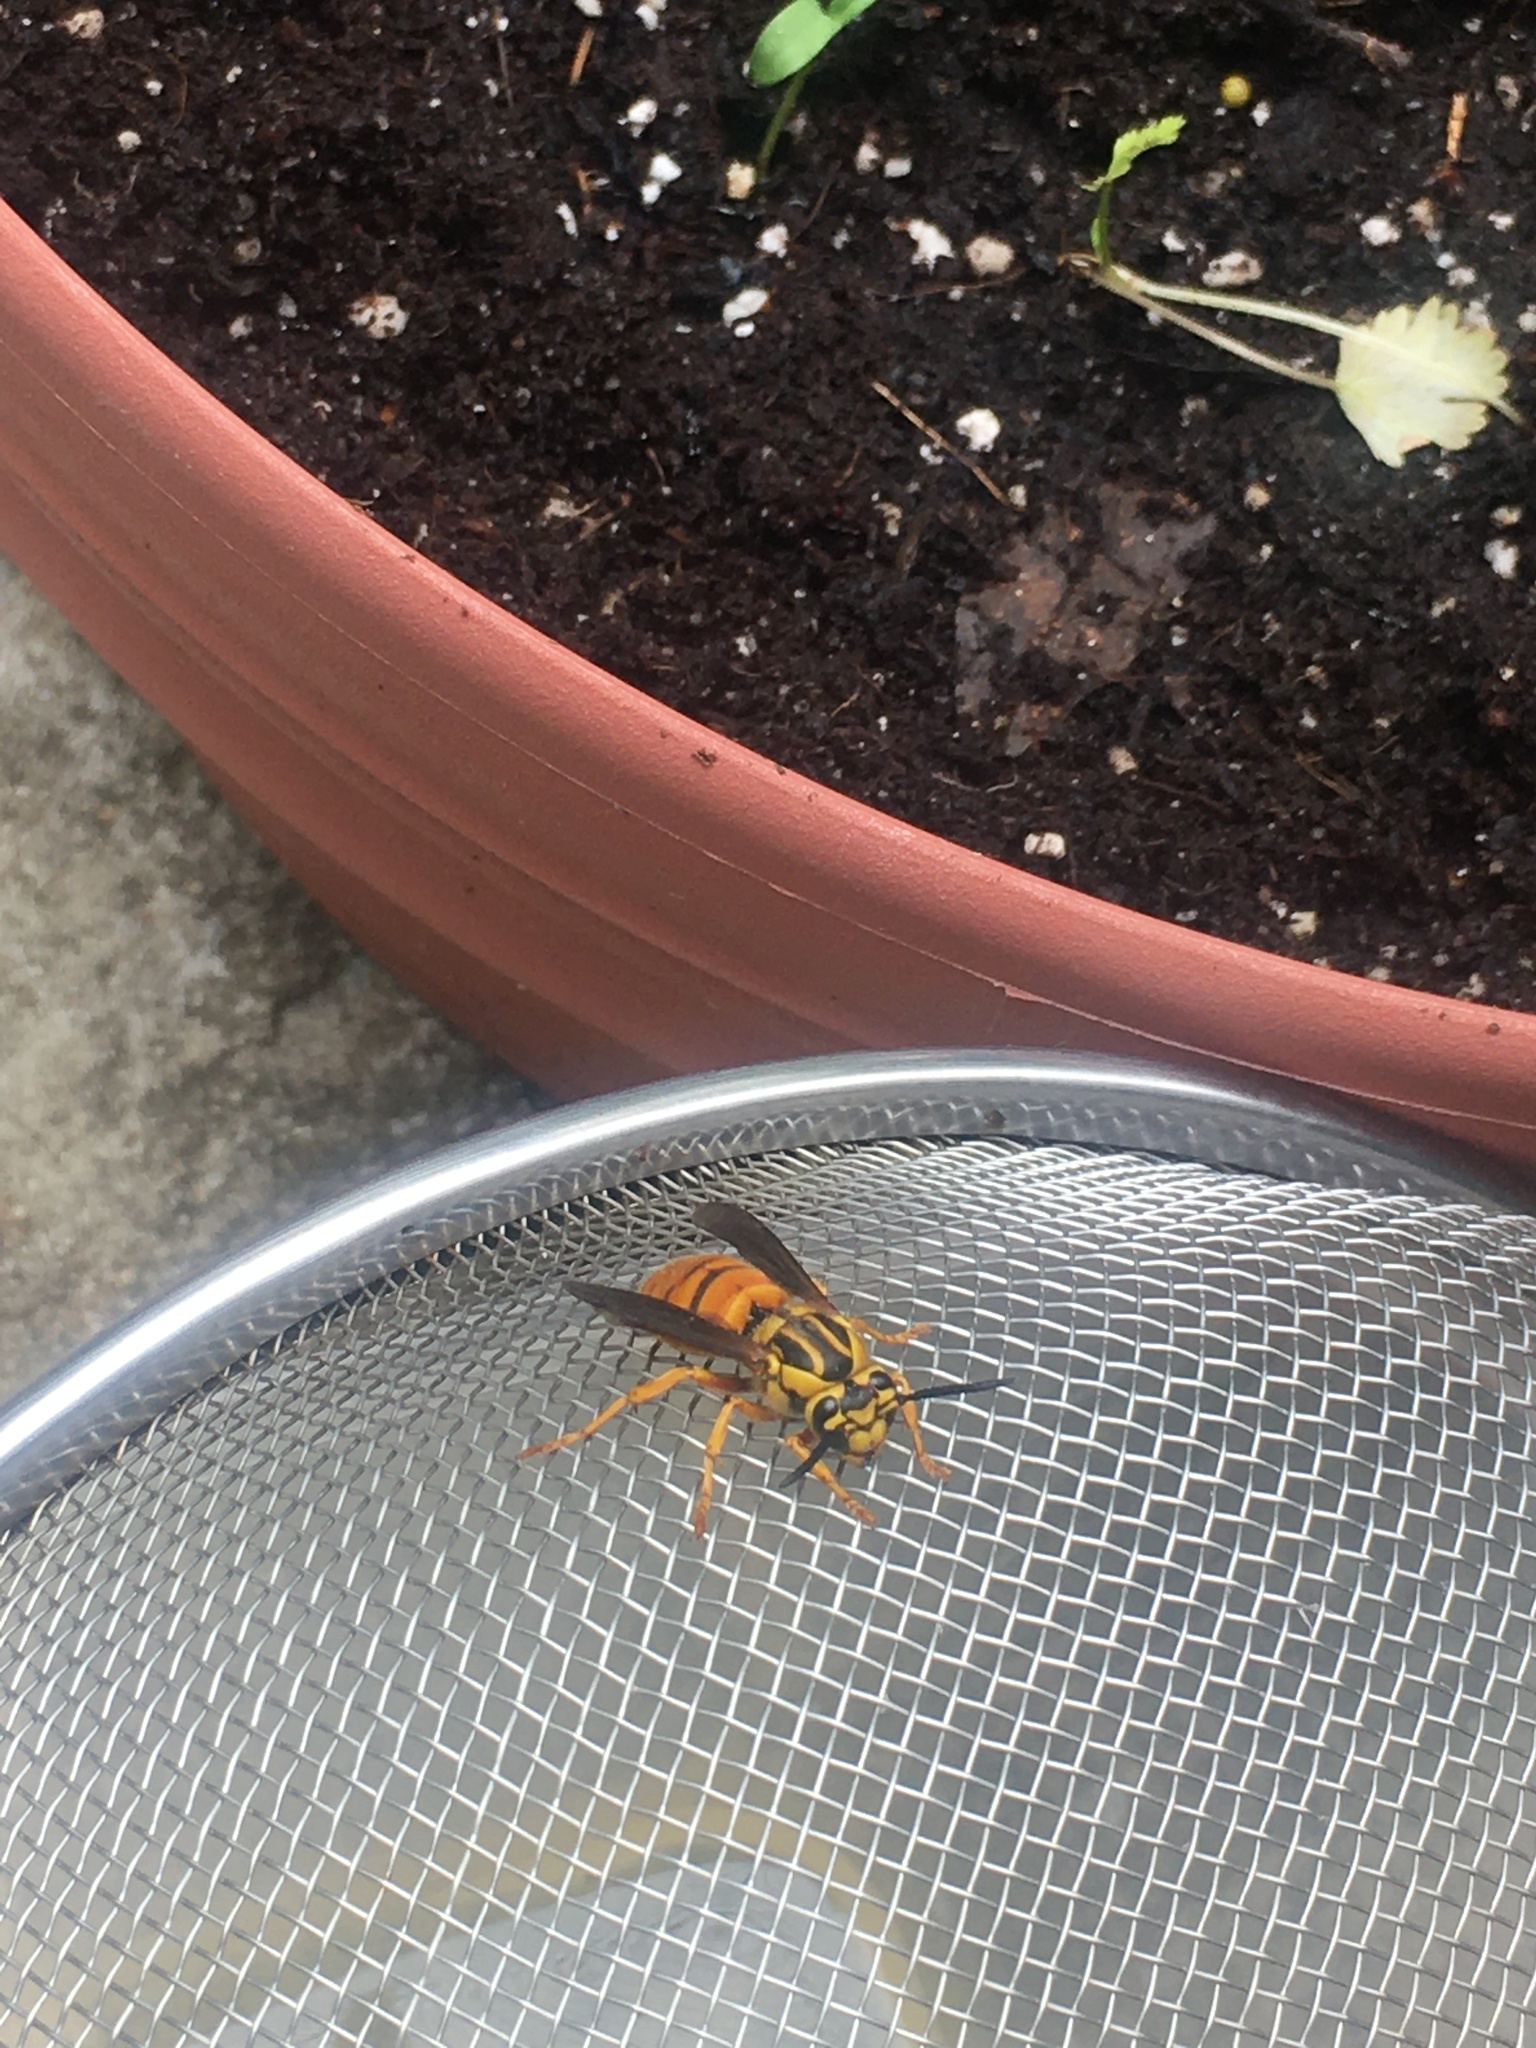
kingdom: Animalia
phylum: Arthropoda
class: Insecta
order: Hymenoptera
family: Vespidae
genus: Vespula
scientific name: Vespula squamosa
